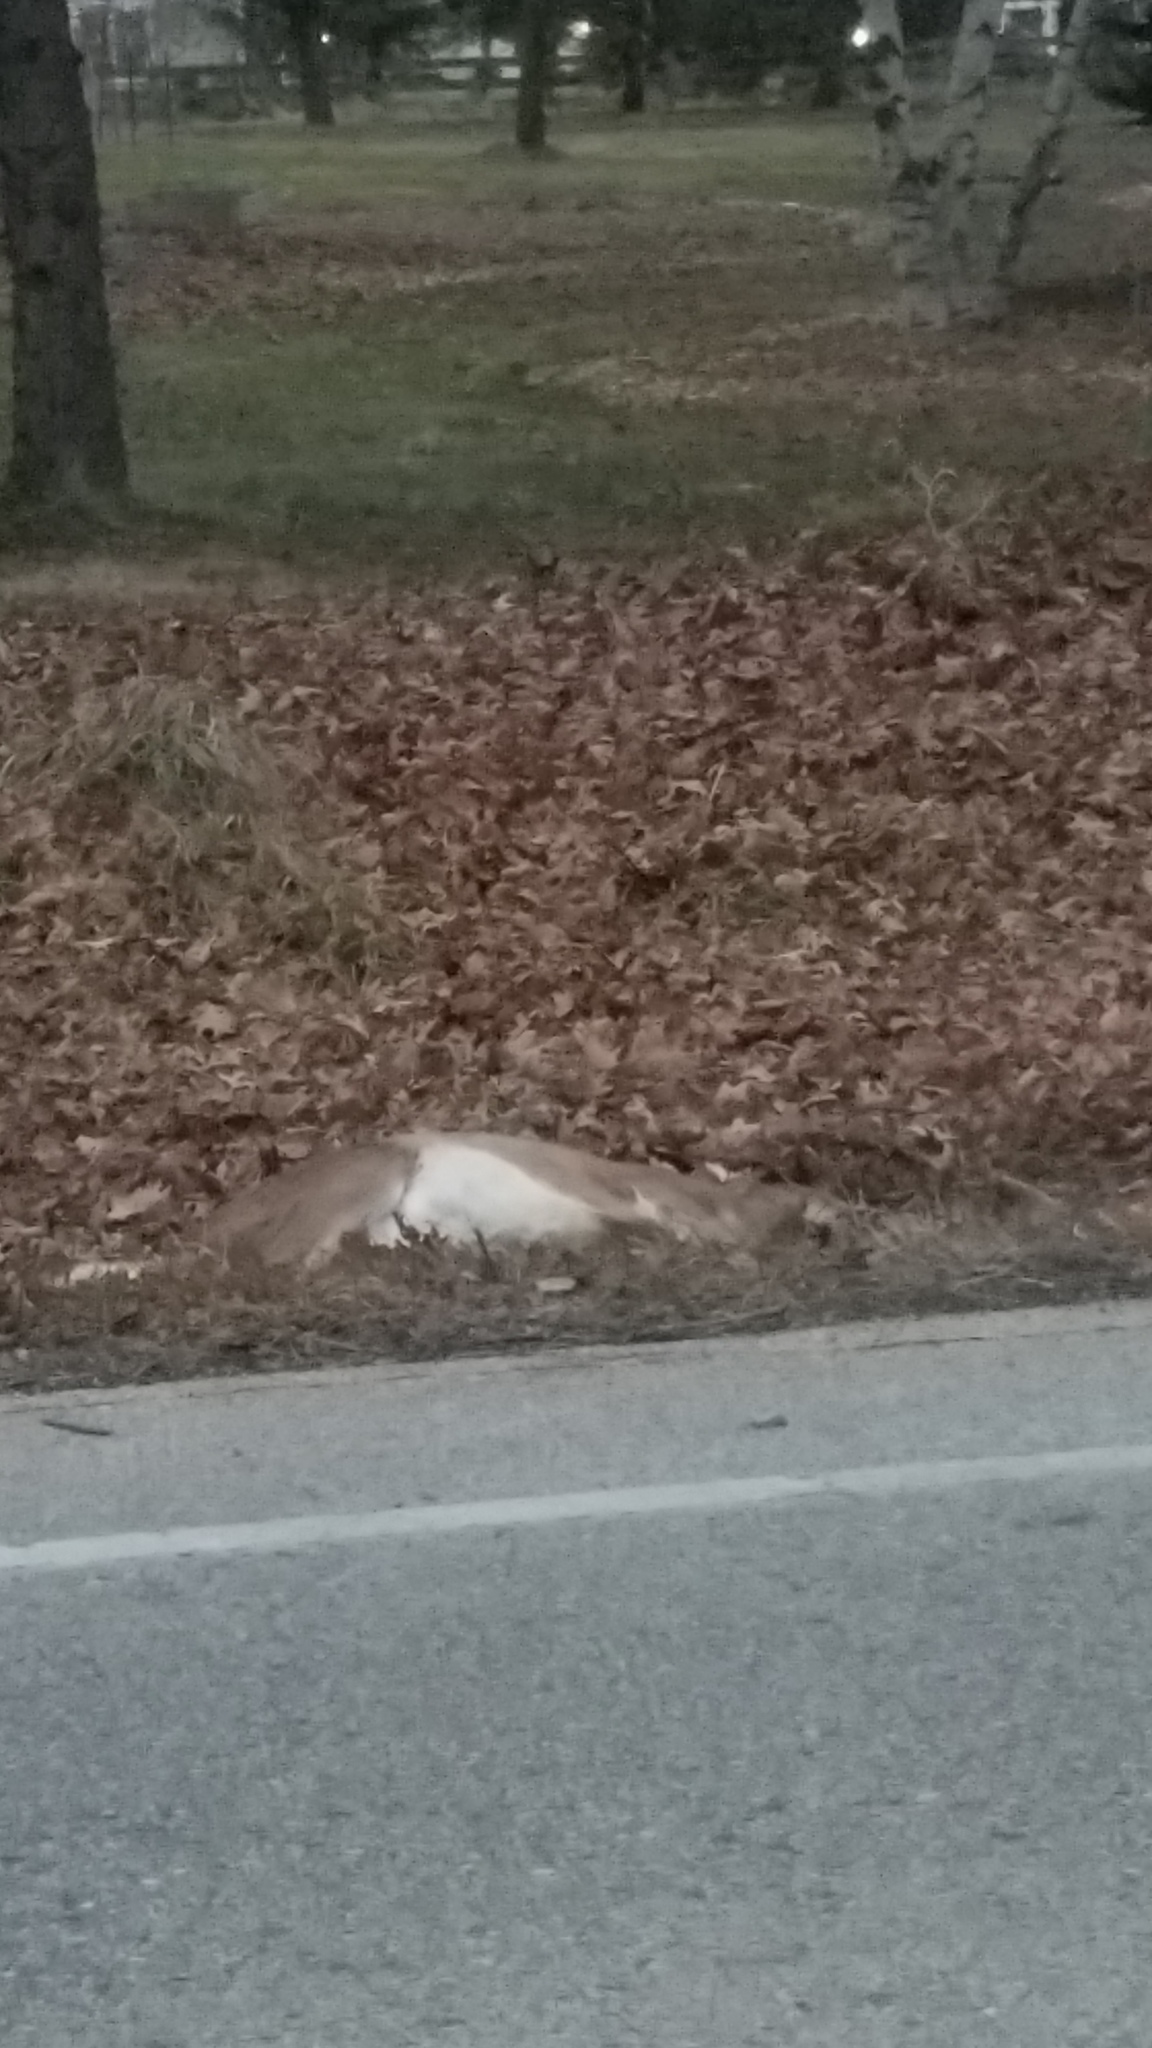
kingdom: Animalia
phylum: Chordata
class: Mammalia
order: Artiodactyla
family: Cervidae
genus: Odocoileus
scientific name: Odocoileus virginianus
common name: White-tailed deer
